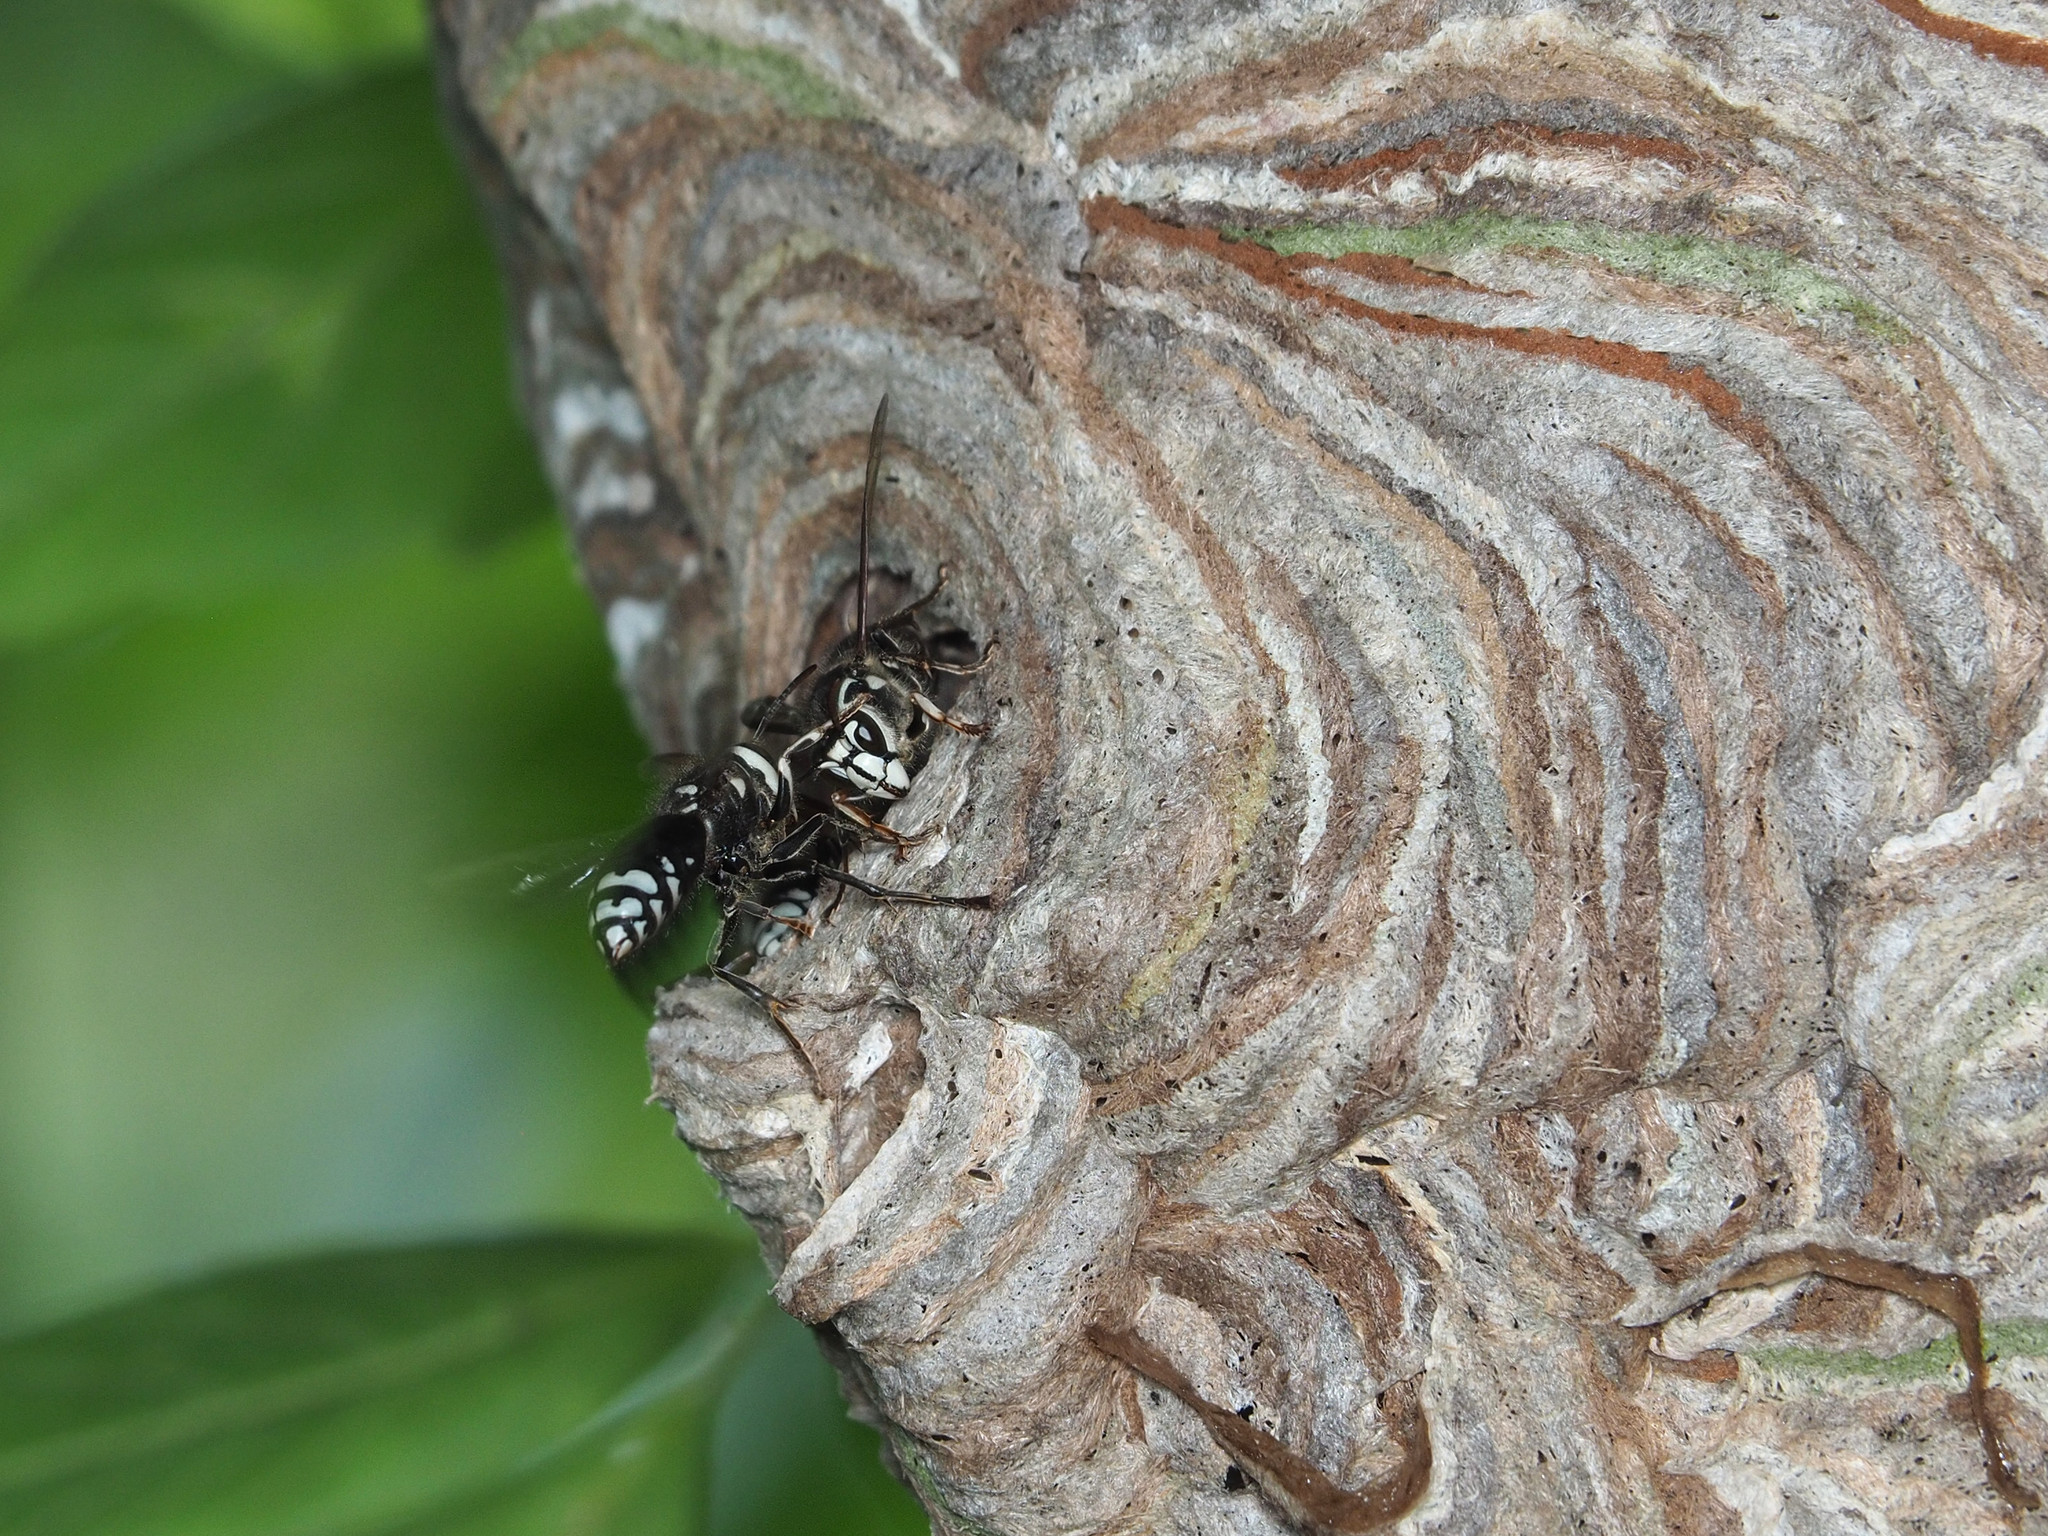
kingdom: Animalia
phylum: Arthropoda
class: Insecta
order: Hymenoptera
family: Vespidae
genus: Dolichovespula
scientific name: Dolichovespula maculata
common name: Bald-faced hornet
